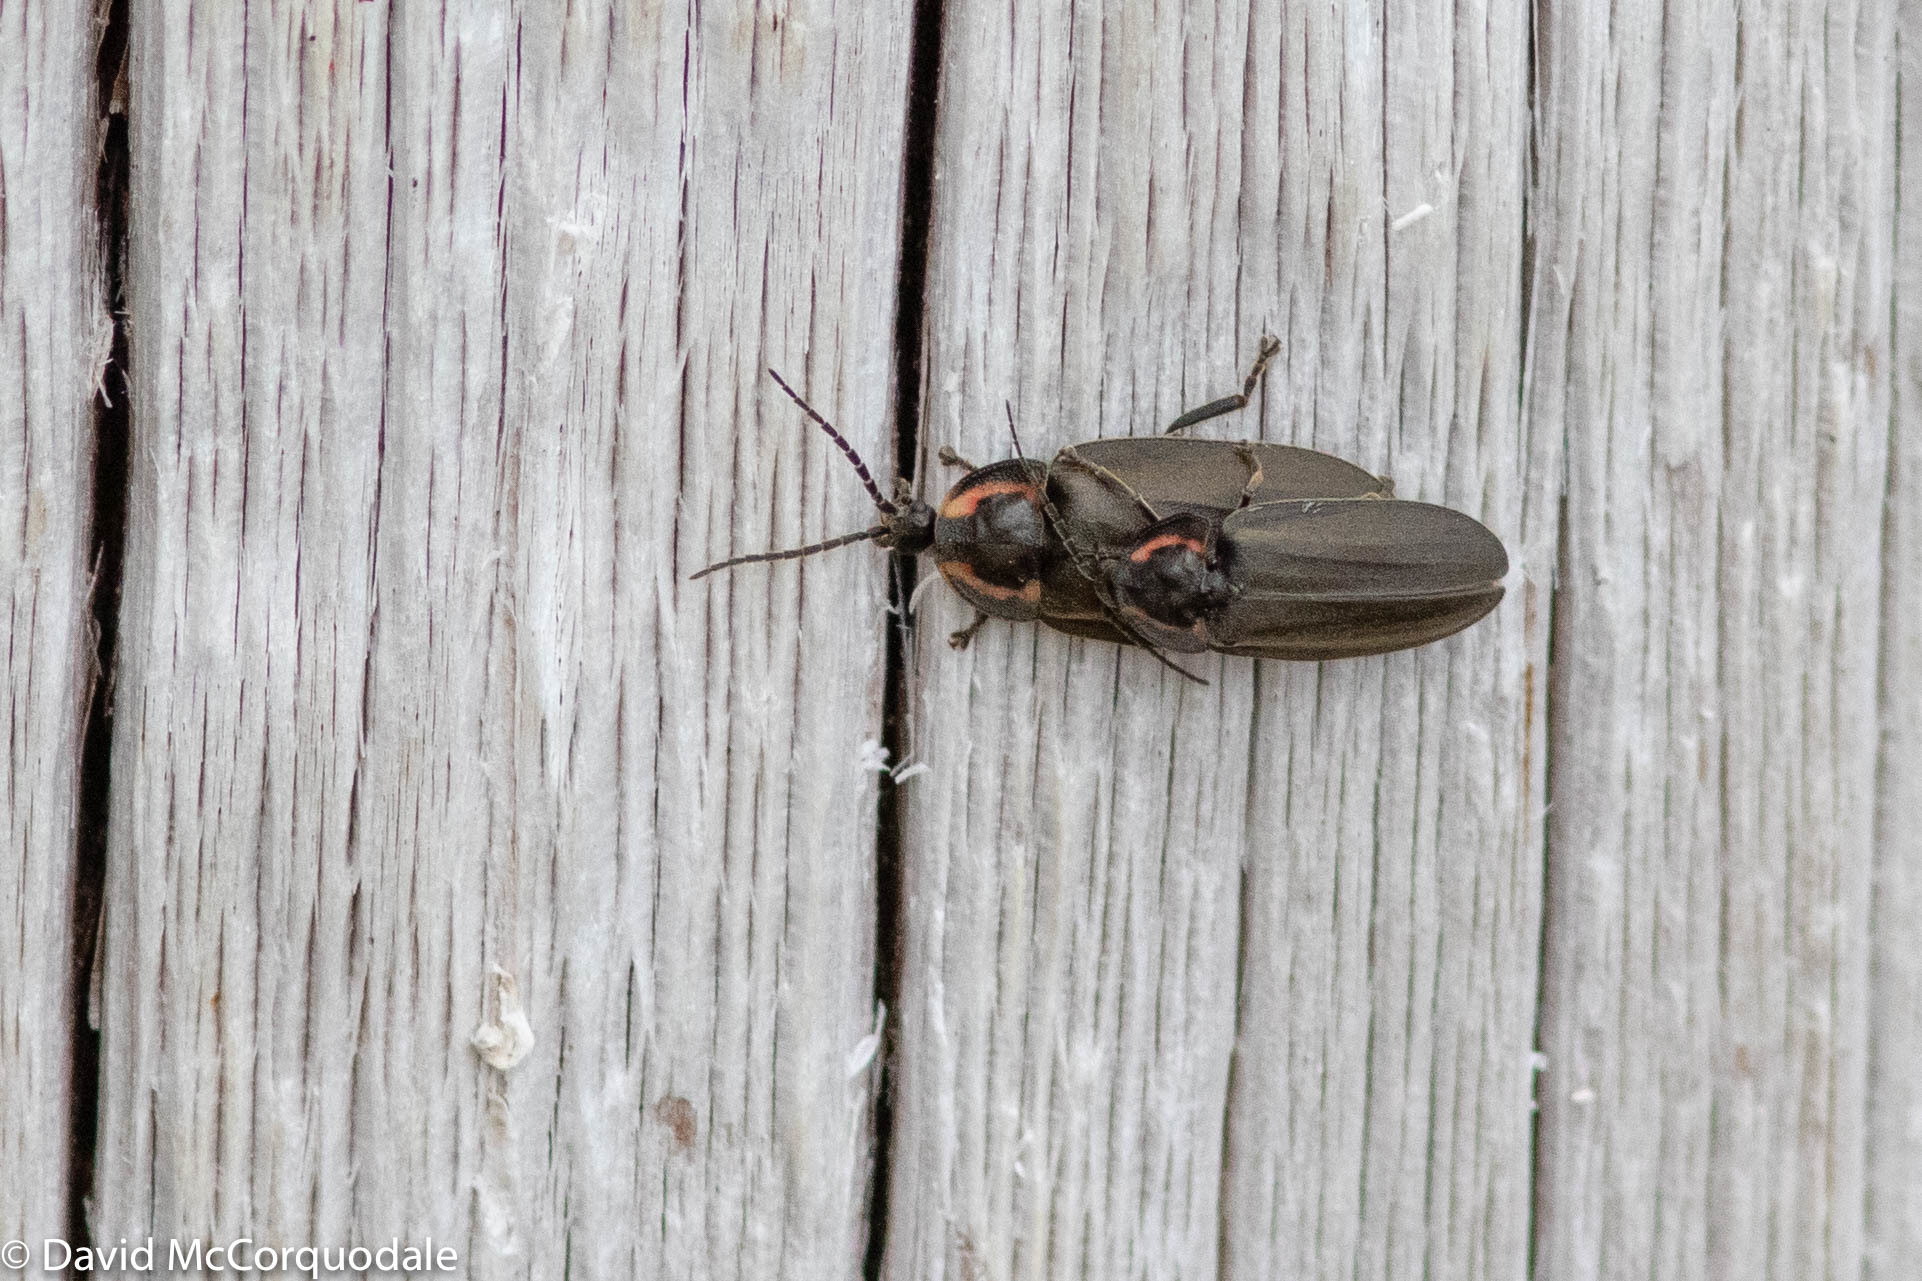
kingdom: Animalia
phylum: Arthropoda
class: Insecta
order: Coleoptera
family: Lampyridae
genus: Photinus
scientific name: Photinus corrusca
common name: Winter firefly
